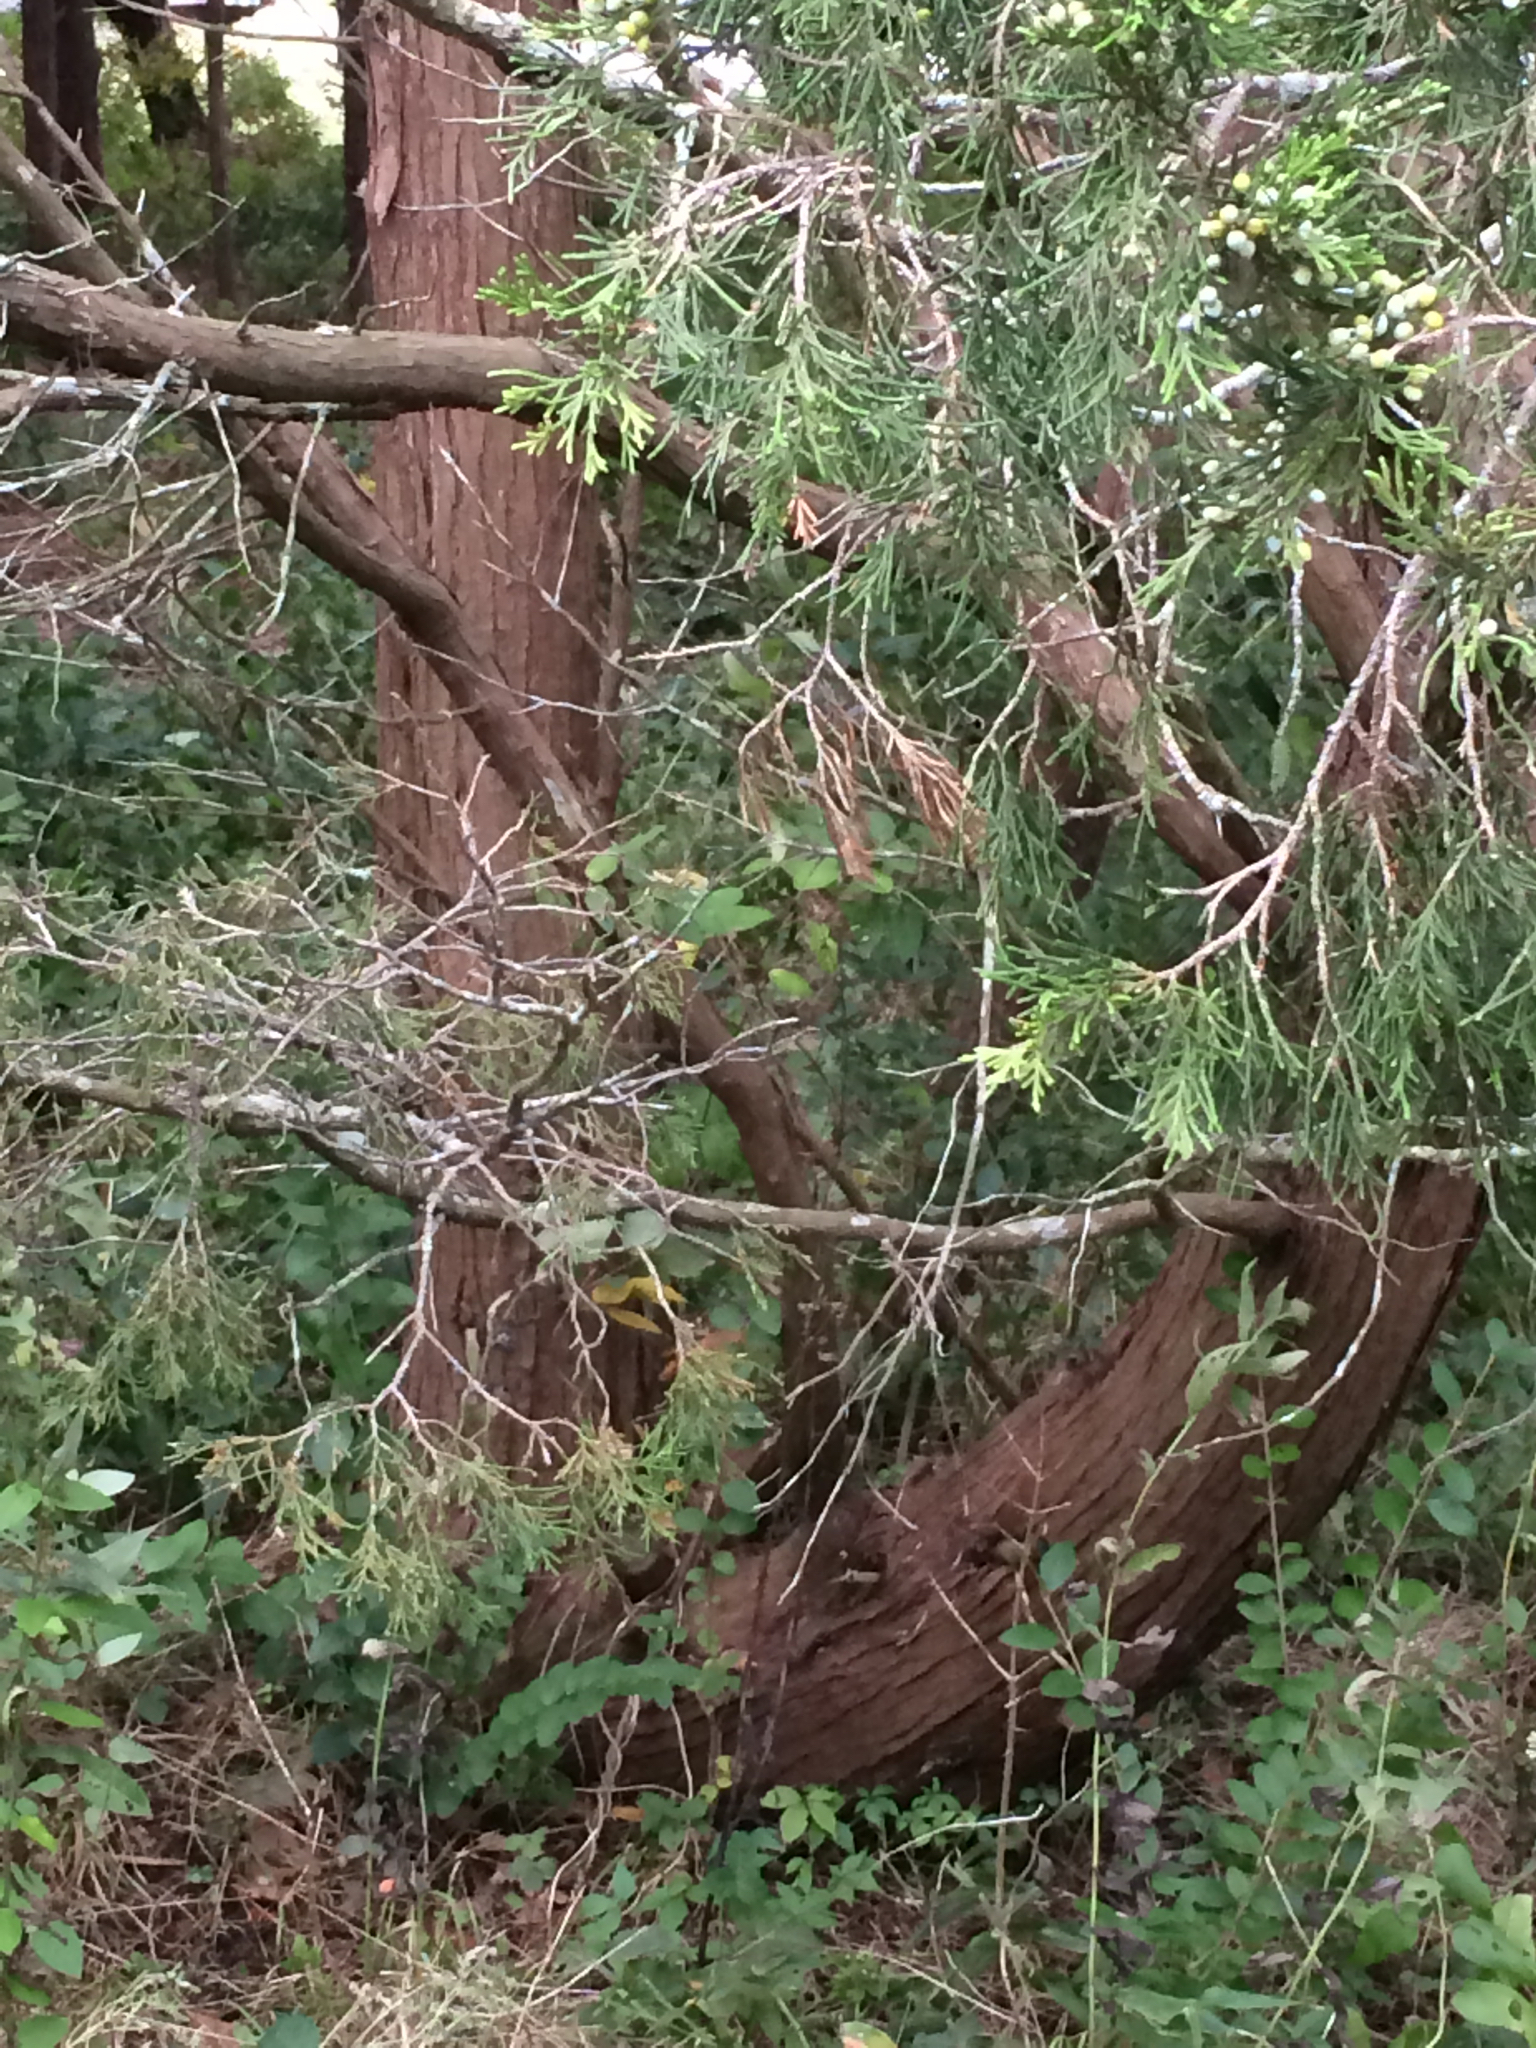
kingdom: Plantae
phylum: Tracheophyta
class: Pinopsida
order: Pinales
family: Cupressaceae
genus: Juniperus
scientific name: Juniperus virginiana
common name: Red juniper
